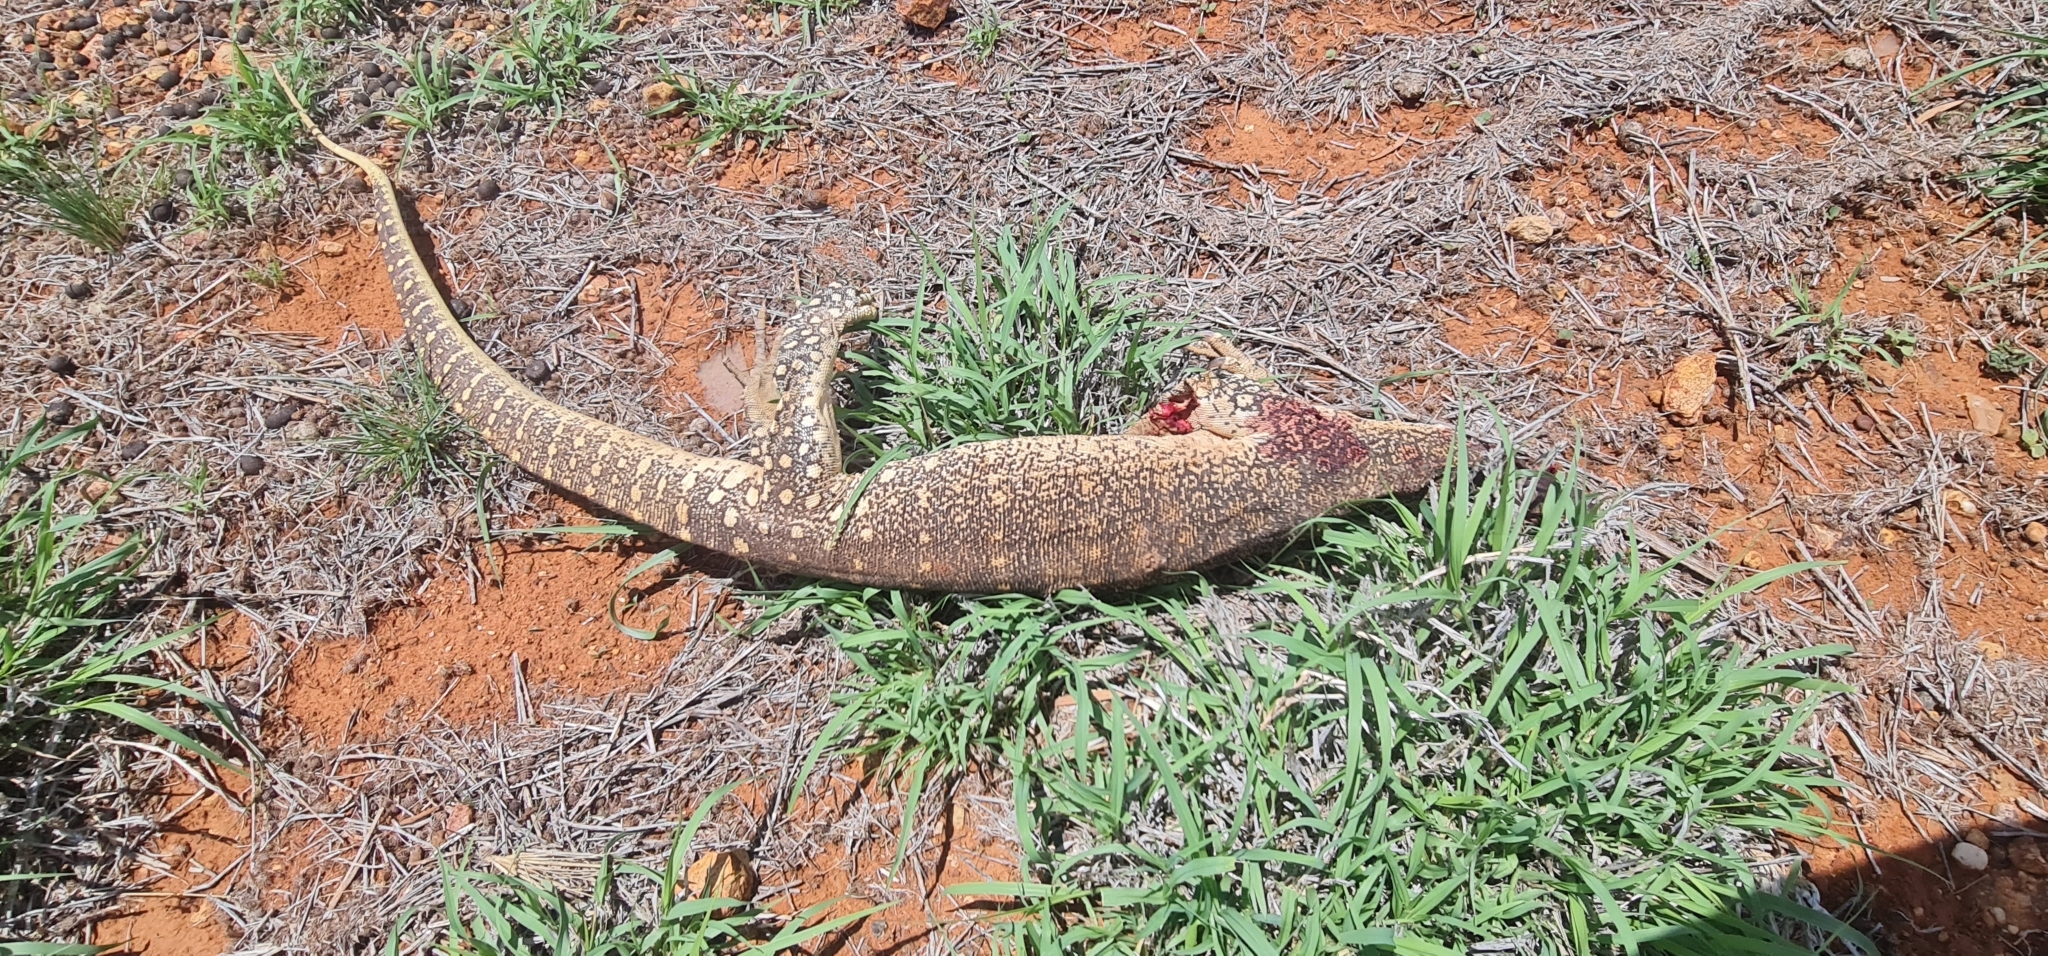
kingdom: Animalia
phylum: Chordata
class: Squamata
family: Varanidae
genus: Varanus
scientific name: Varanus gouldii
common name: Gould's goanna
